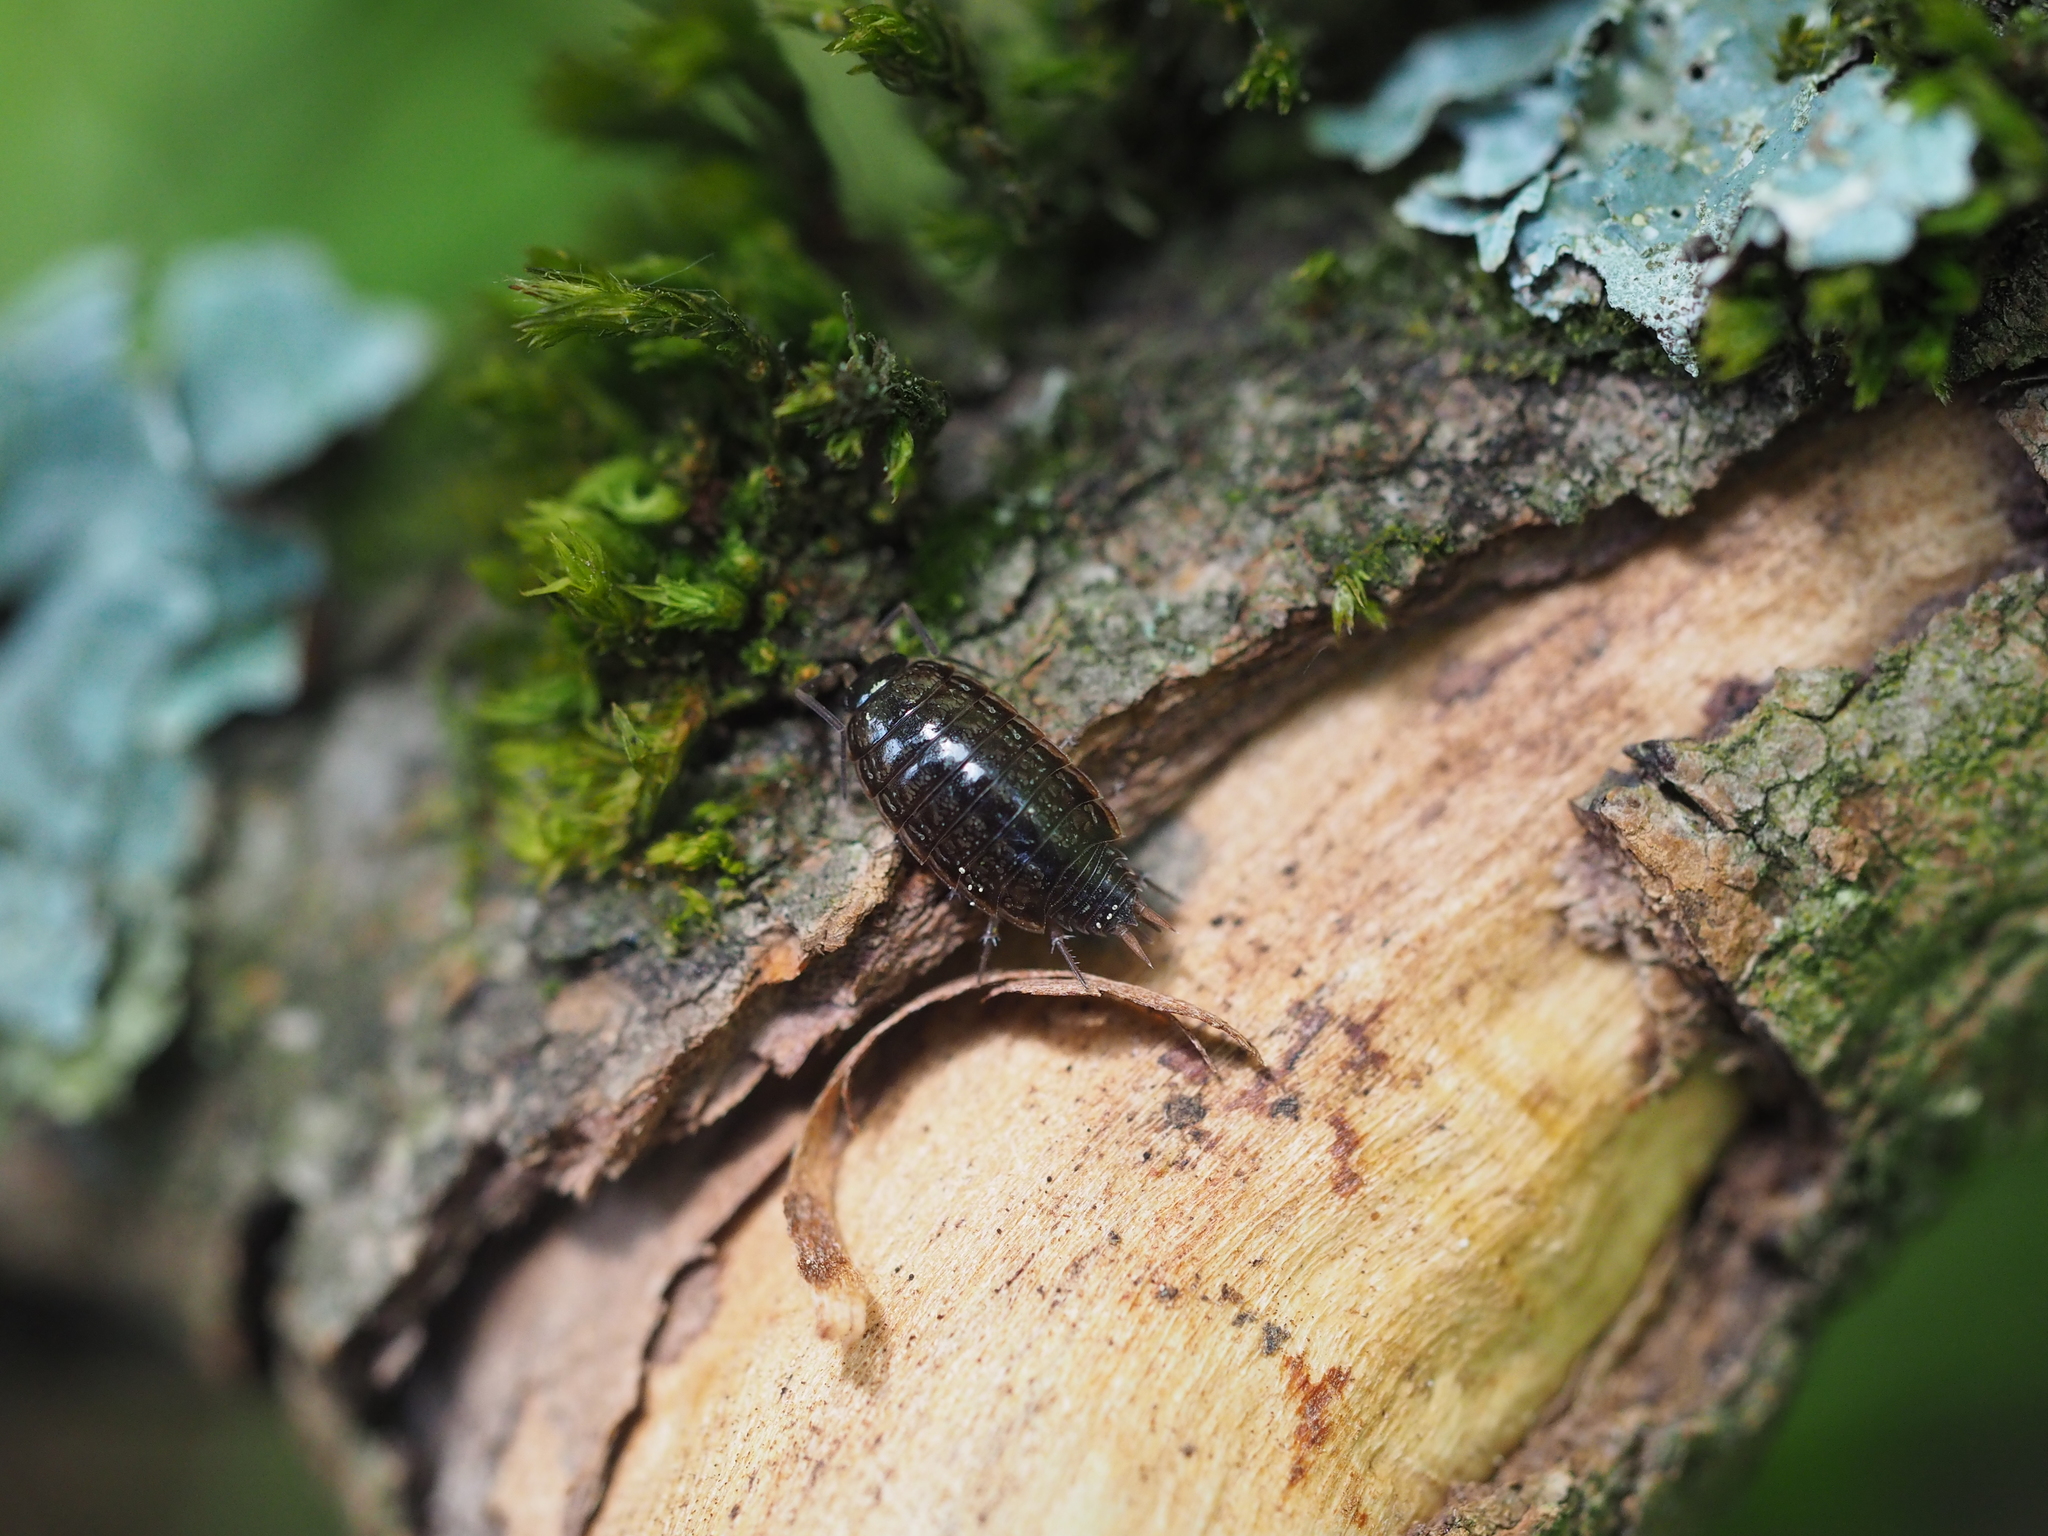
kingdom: Animalia
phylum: Arthropoda
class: Malacostraca
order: Isopoda
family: Philosciidae
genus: Philoscia
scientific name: Philoscia muscorum
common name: Common striped woodlouse
